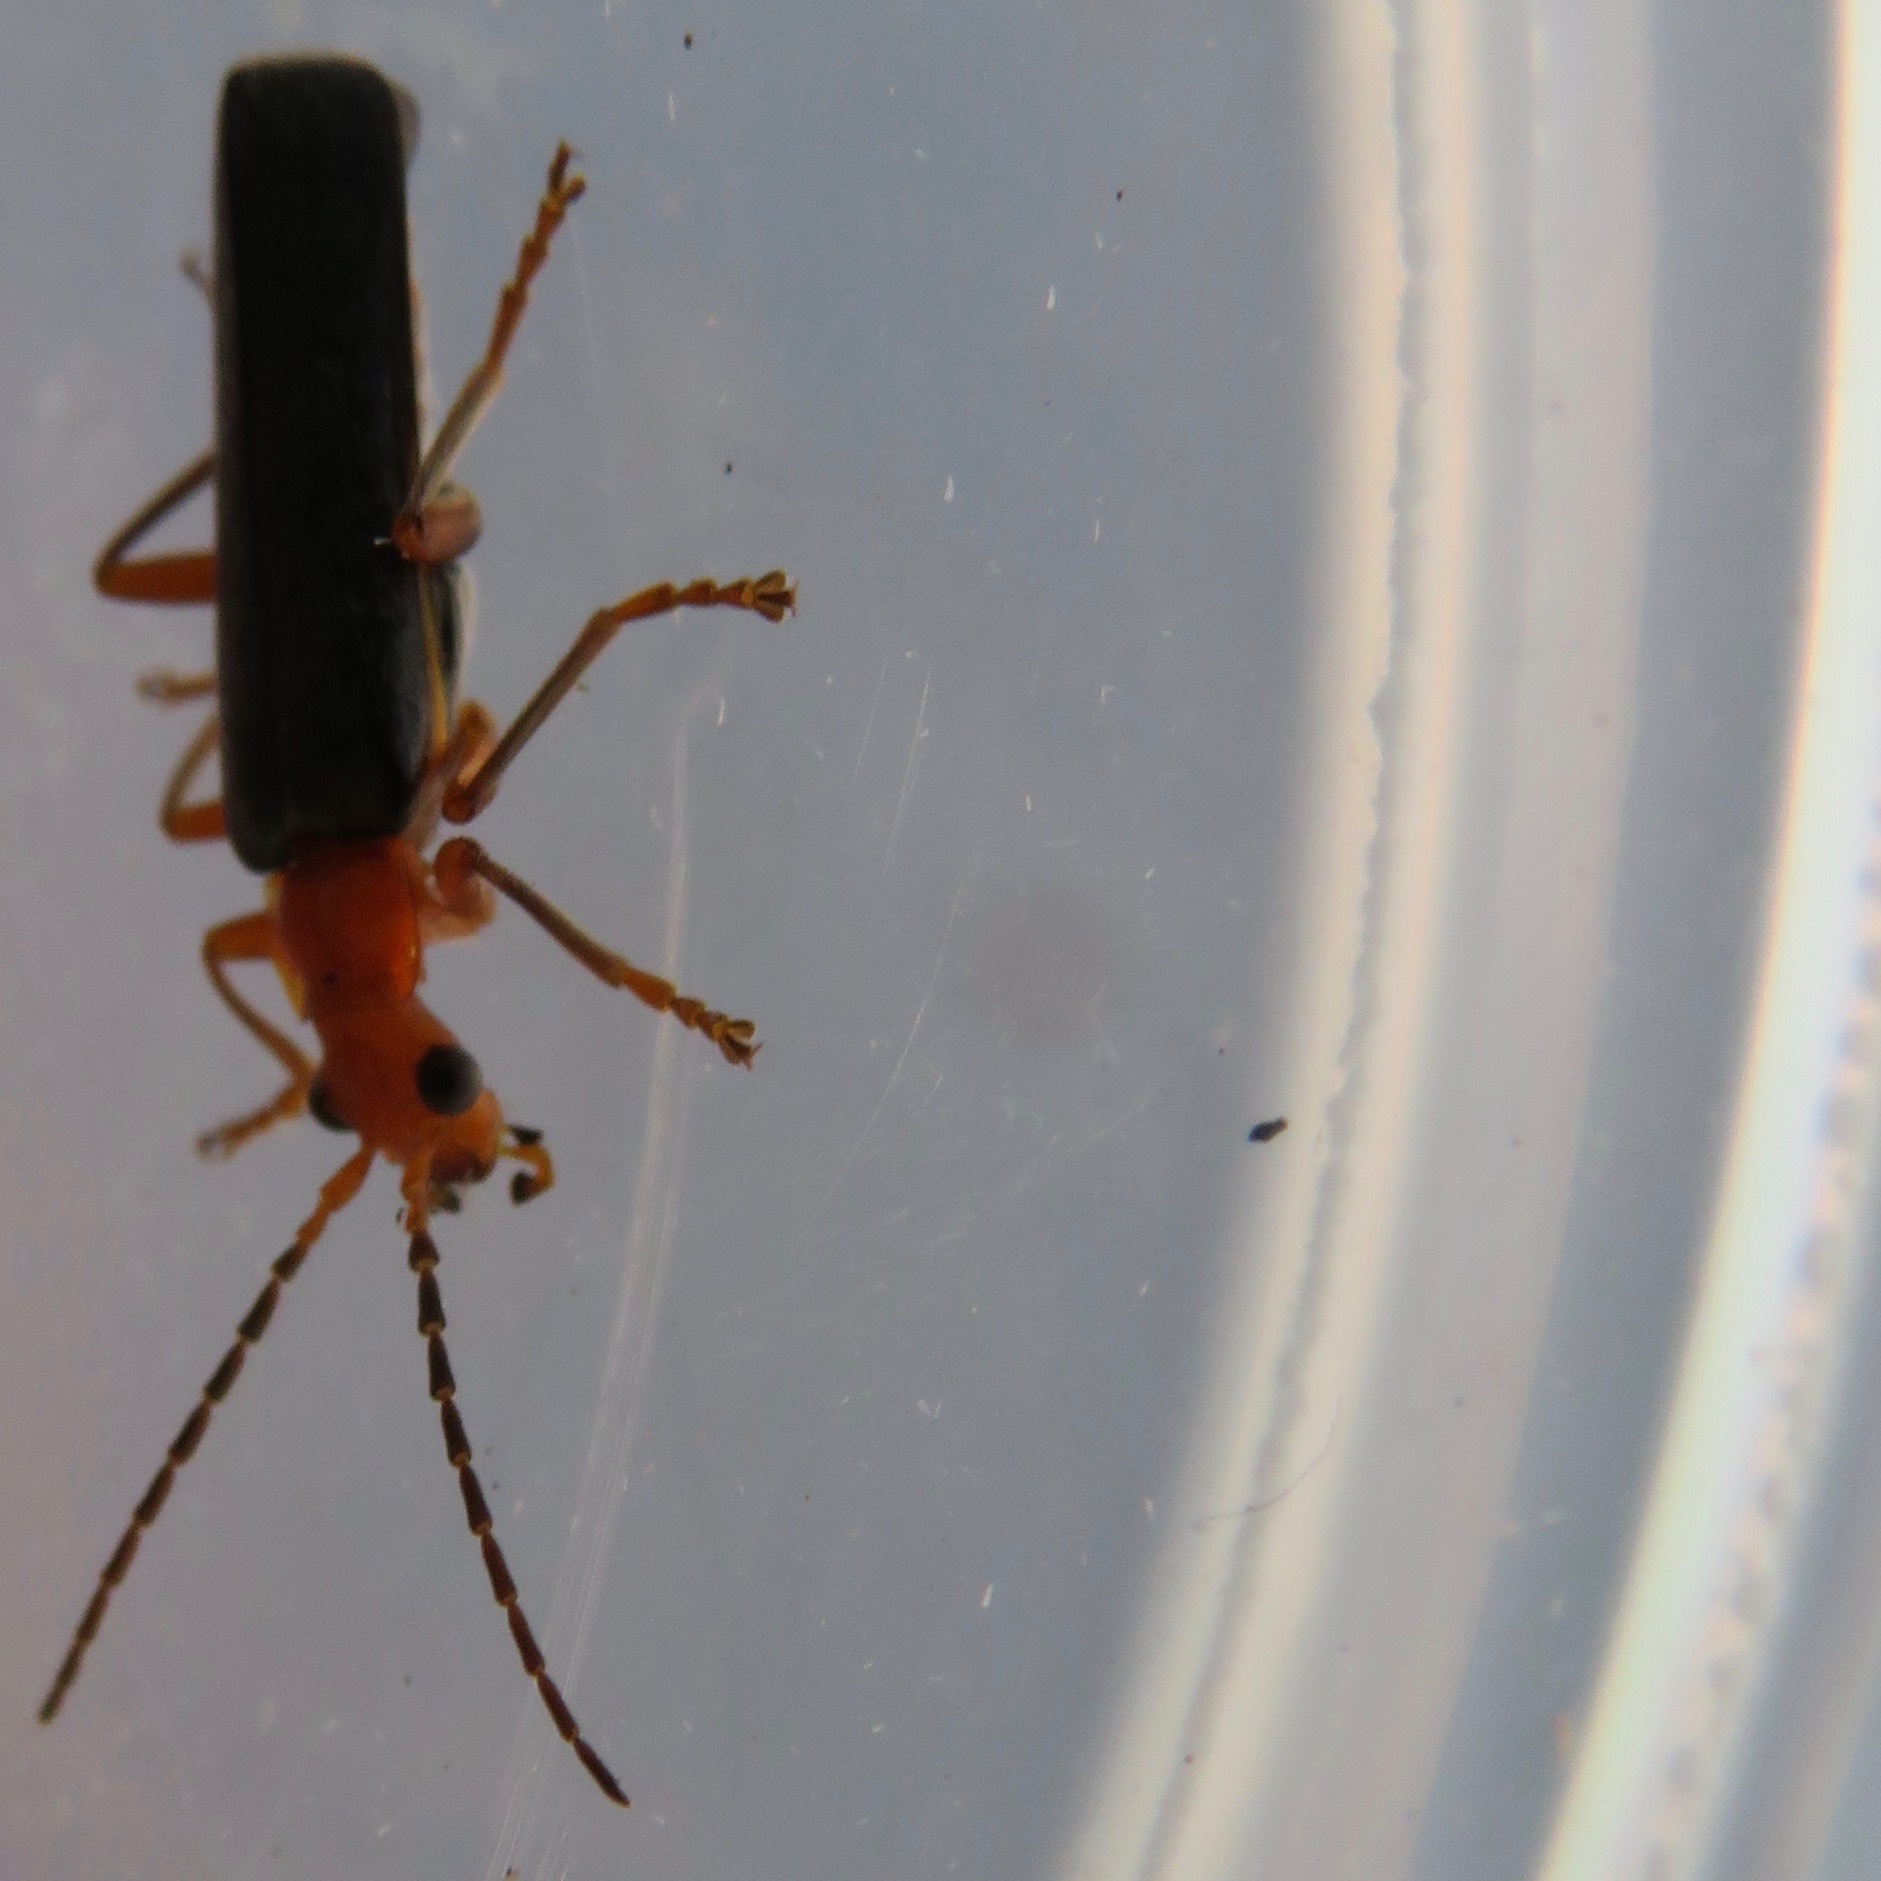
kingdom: Animalia
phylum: Arthropoda
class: Insecta
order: Coleoptera
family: Cantharidae
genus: Podabrus
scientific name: Podabrus pruinosus
